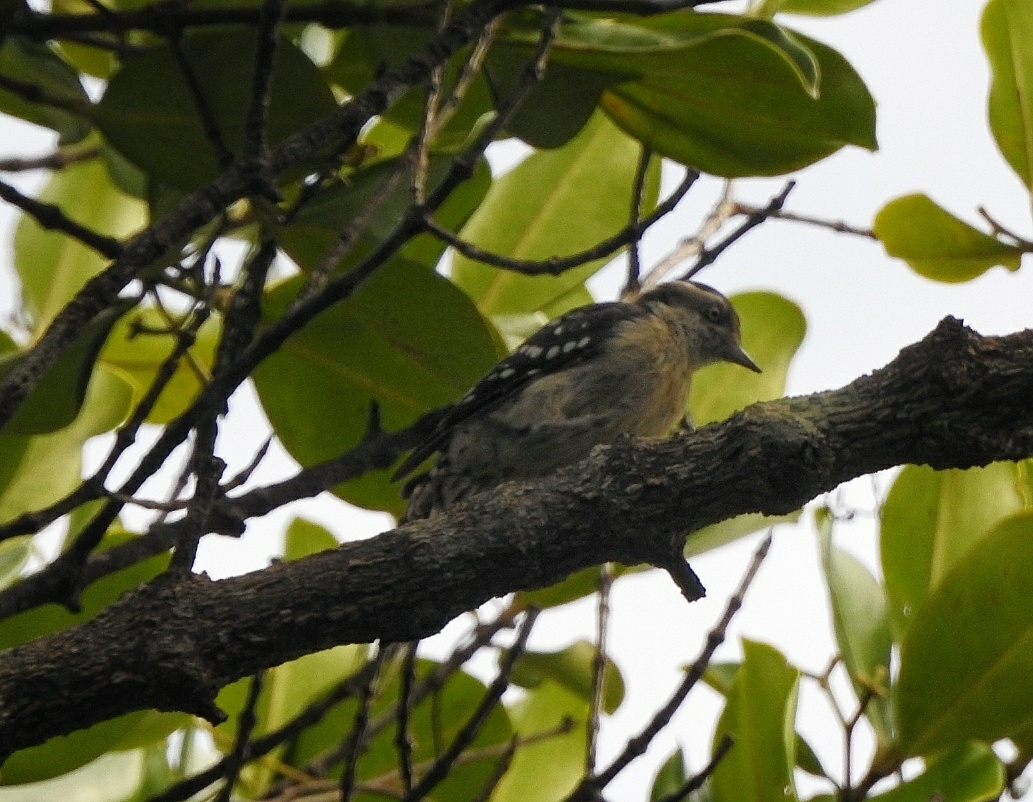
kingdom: Animalia
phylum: Chordata
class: Aves
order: Piciformes
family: Picidae
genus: Yungipicus
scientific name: Yungipicus nanus
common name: Brown-capped pygmy woodpecker
